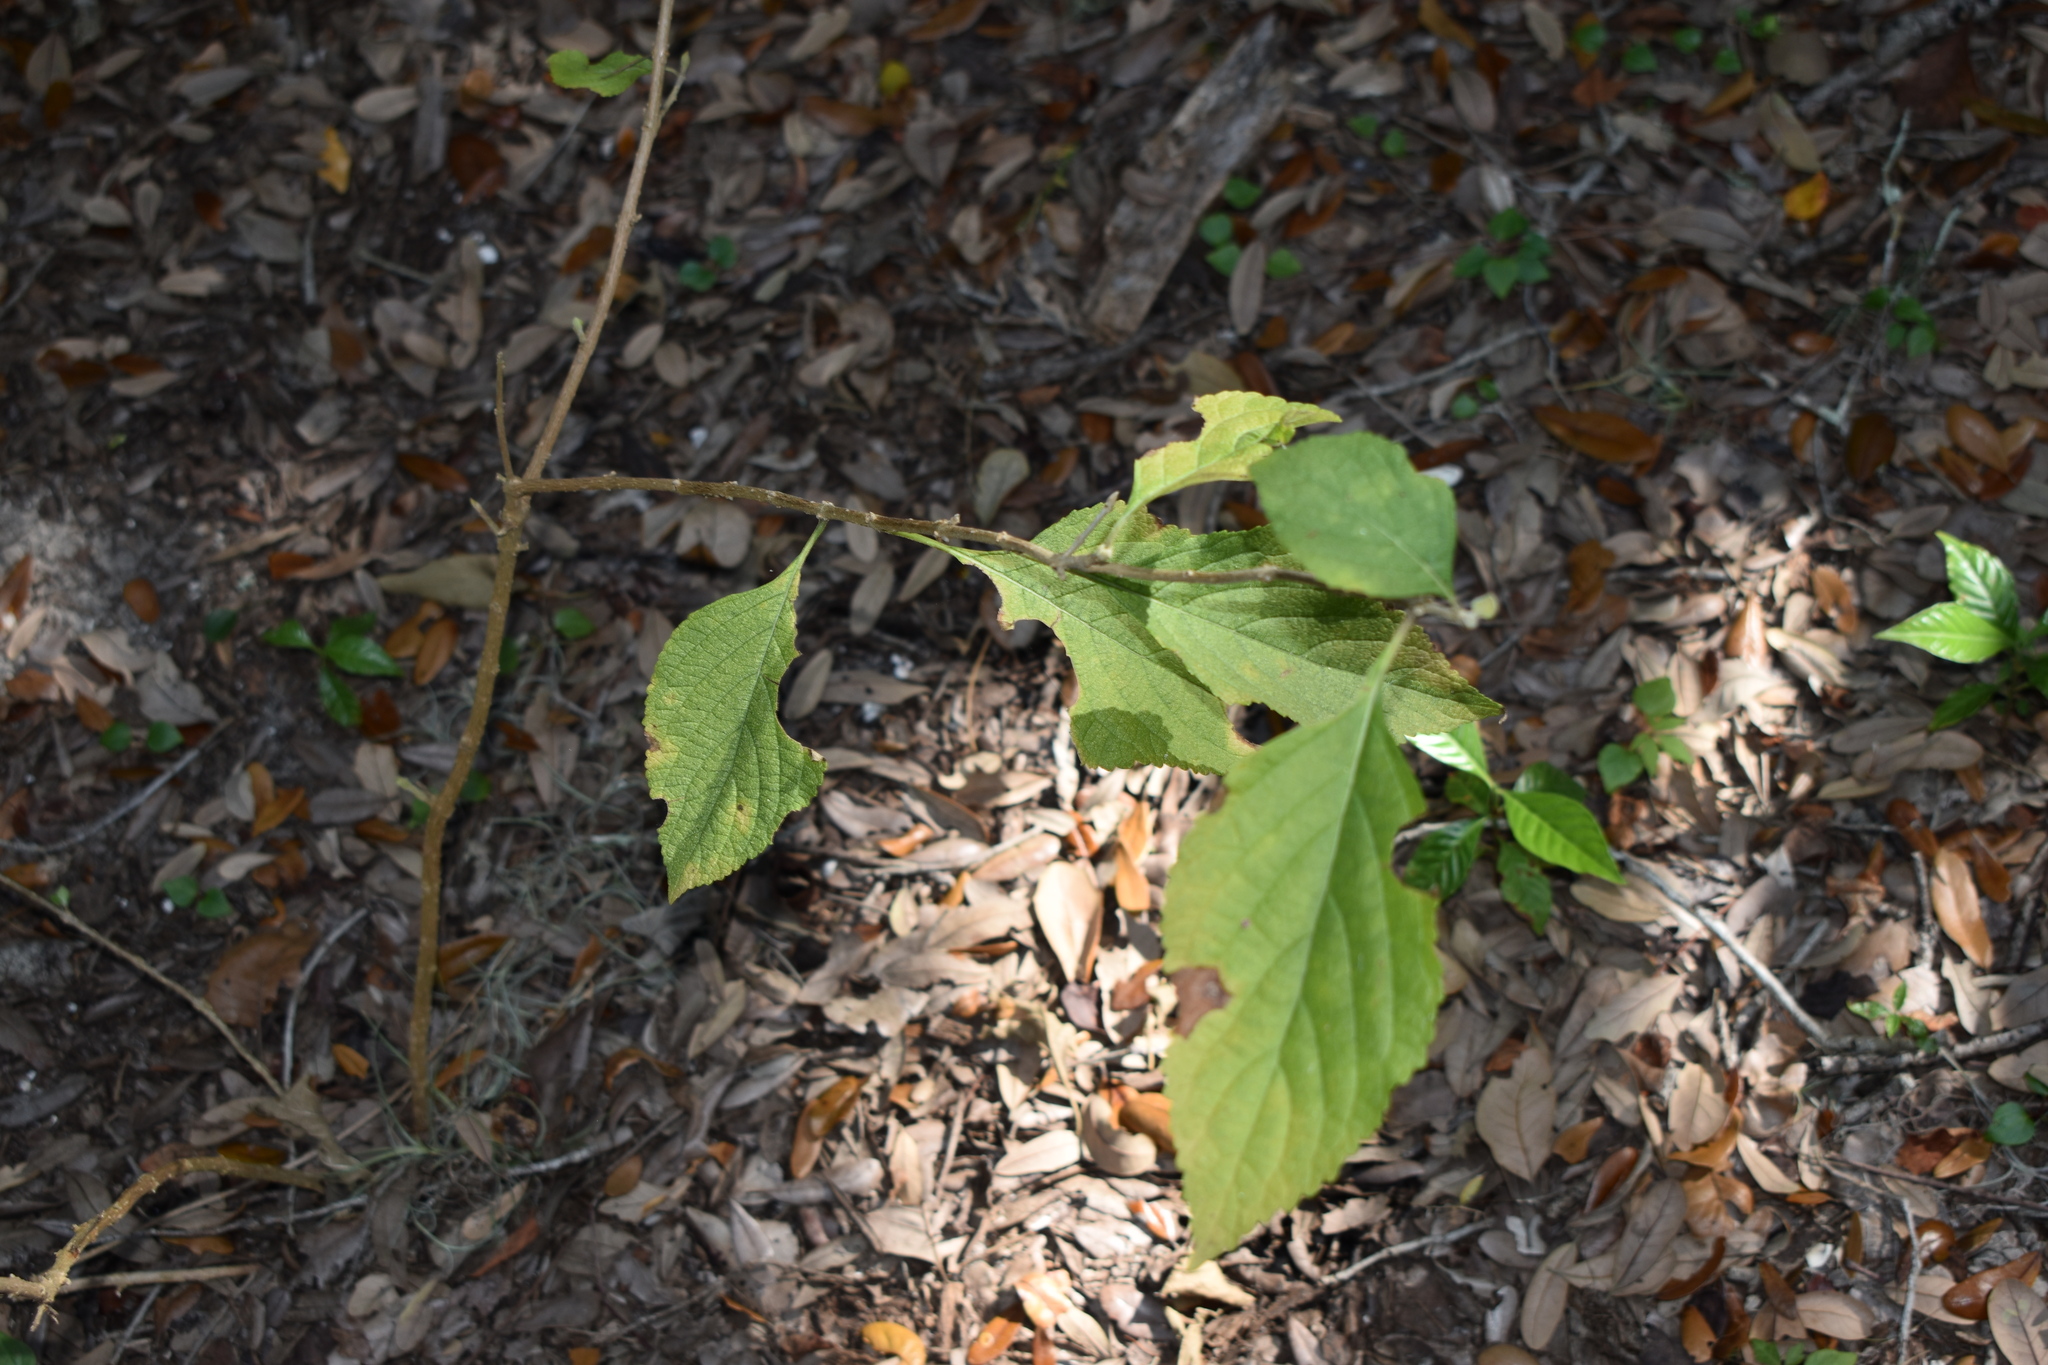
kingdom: Plantae
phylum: Tracheophyta
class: Magnoliopsida
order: Lamiales
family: Lamiaceae
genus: Callicarpa
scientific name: Callicarpa americana
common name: American beautyberry
